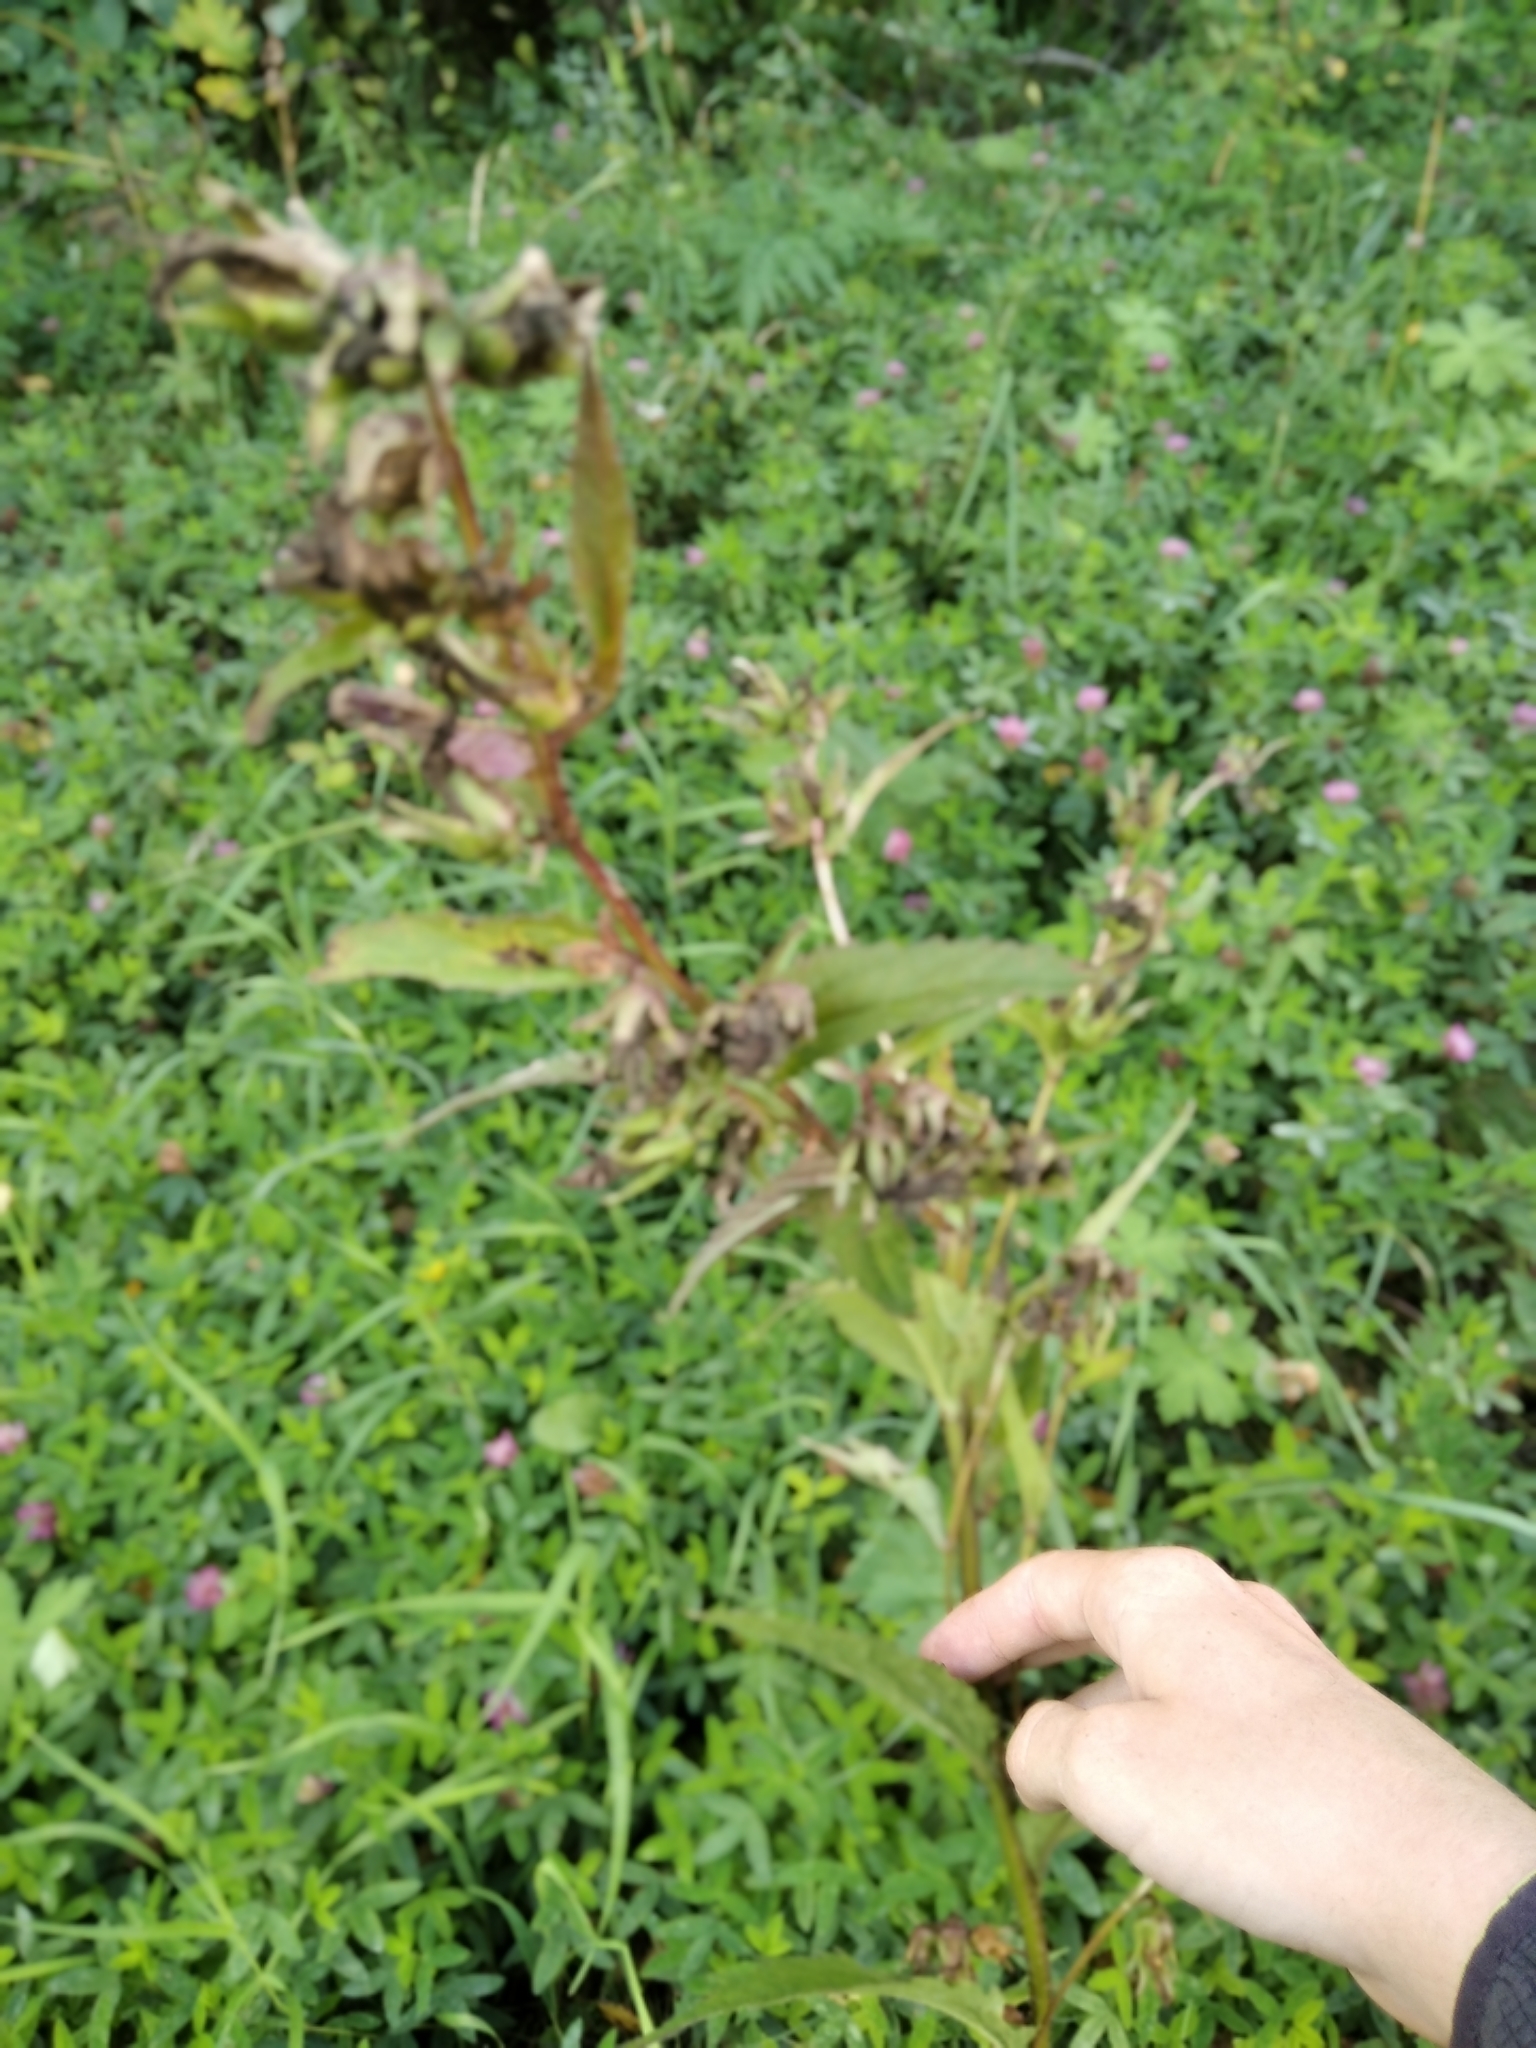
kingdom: Plantae
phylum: Tracheophyta
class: Magnoliopsida
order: Asterales
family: Campanulaceae
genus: Campanula
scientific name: Campanula trachelium
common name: Nettle-leaved bellflower
